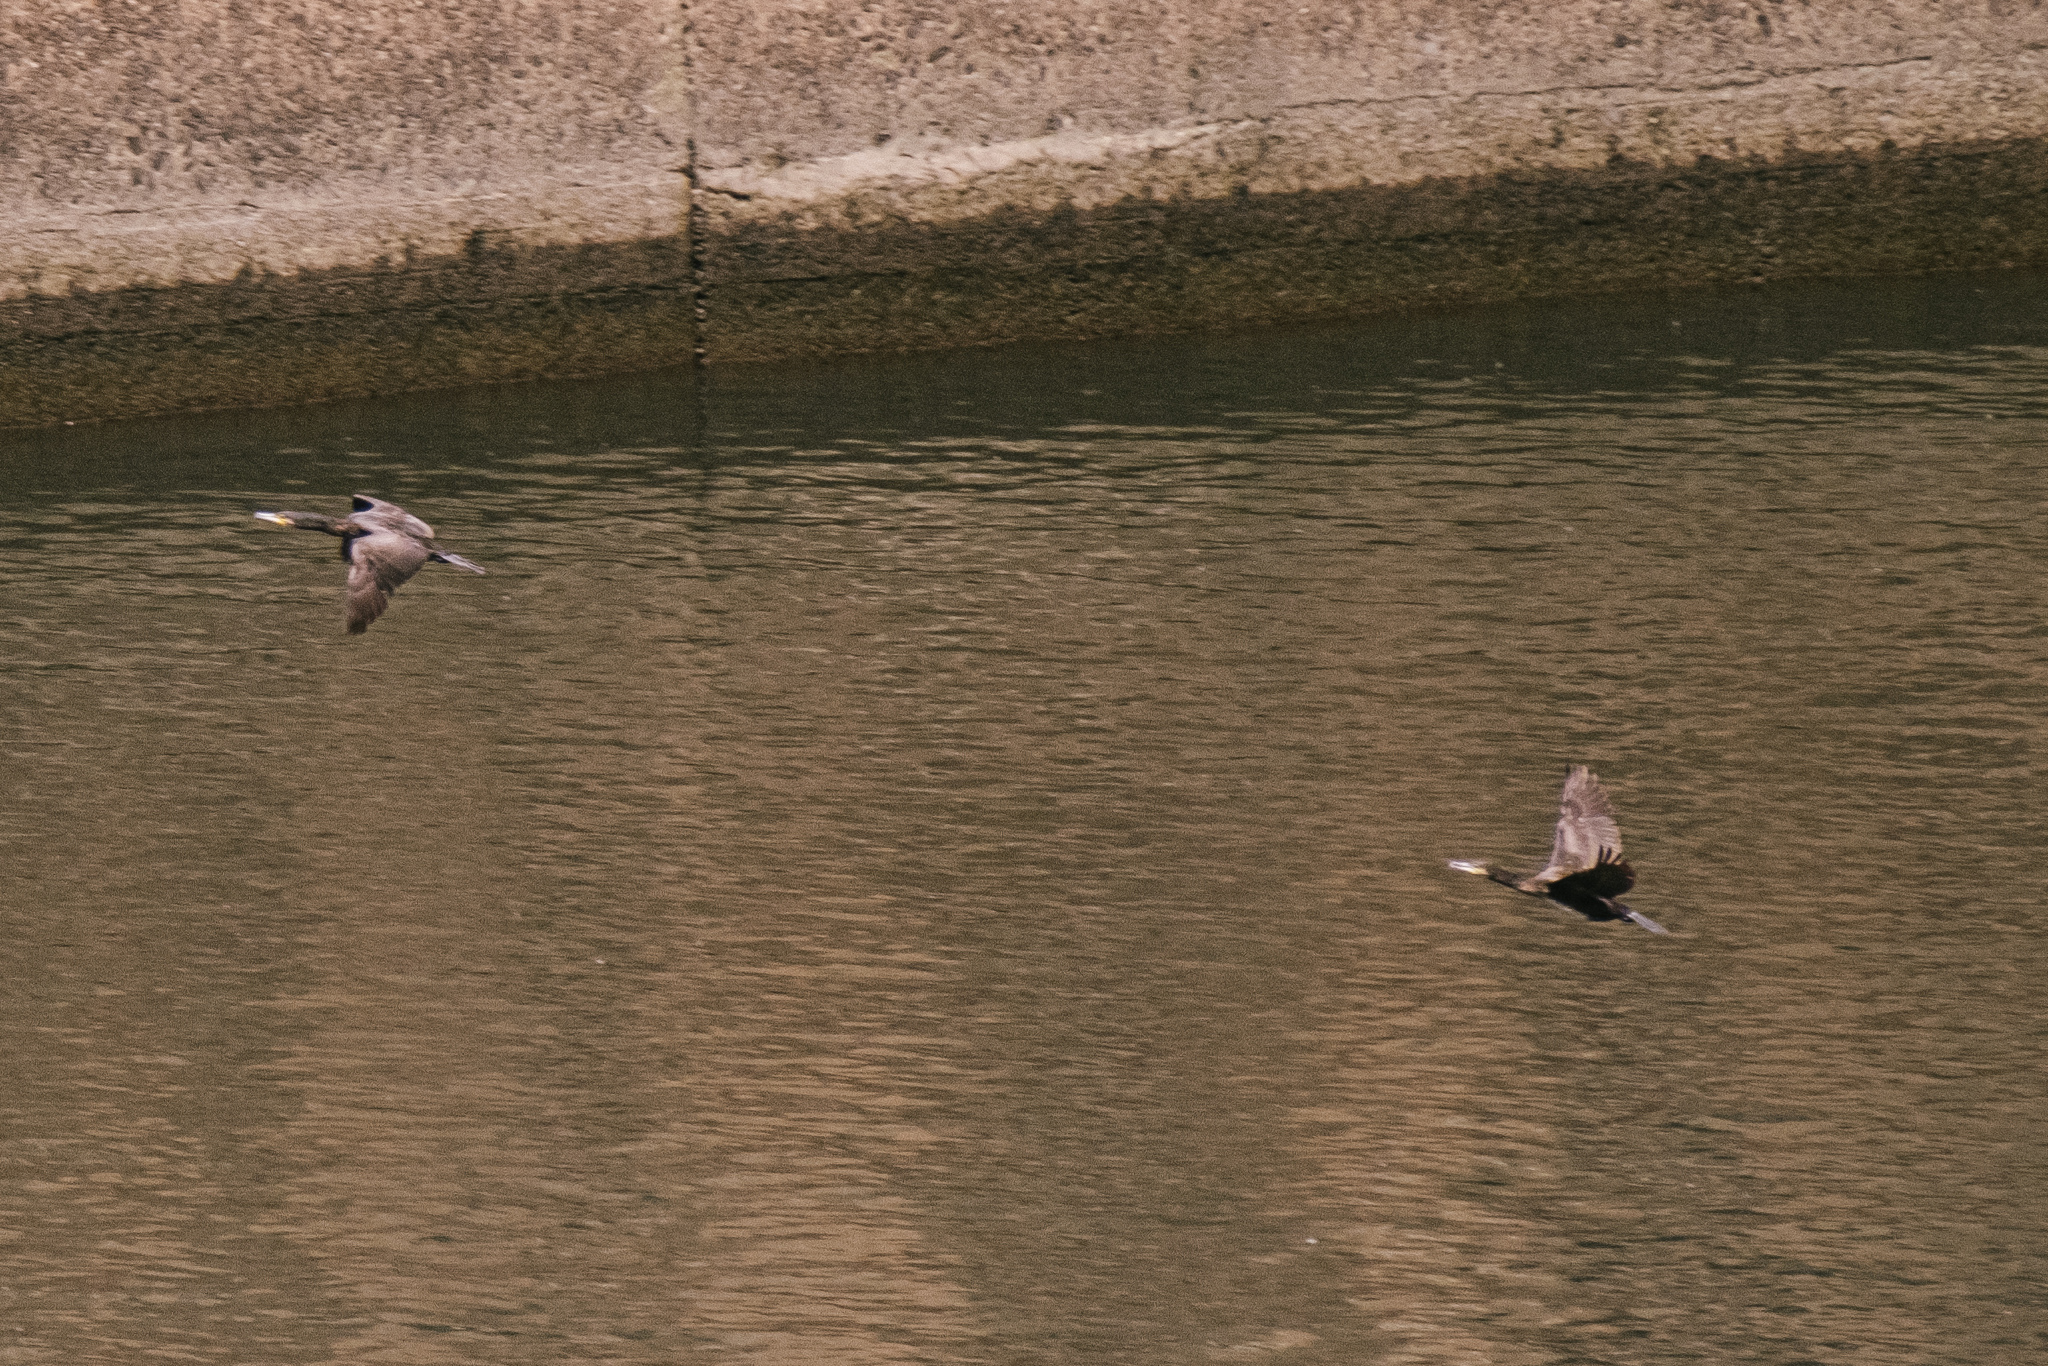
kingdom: Animalia
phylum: Chordata
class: Aves
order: Suliformes
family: Phalacrocoracidae
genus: Phalacrocorax
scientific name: Phalacrocorax carbo
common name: Great cormorant
